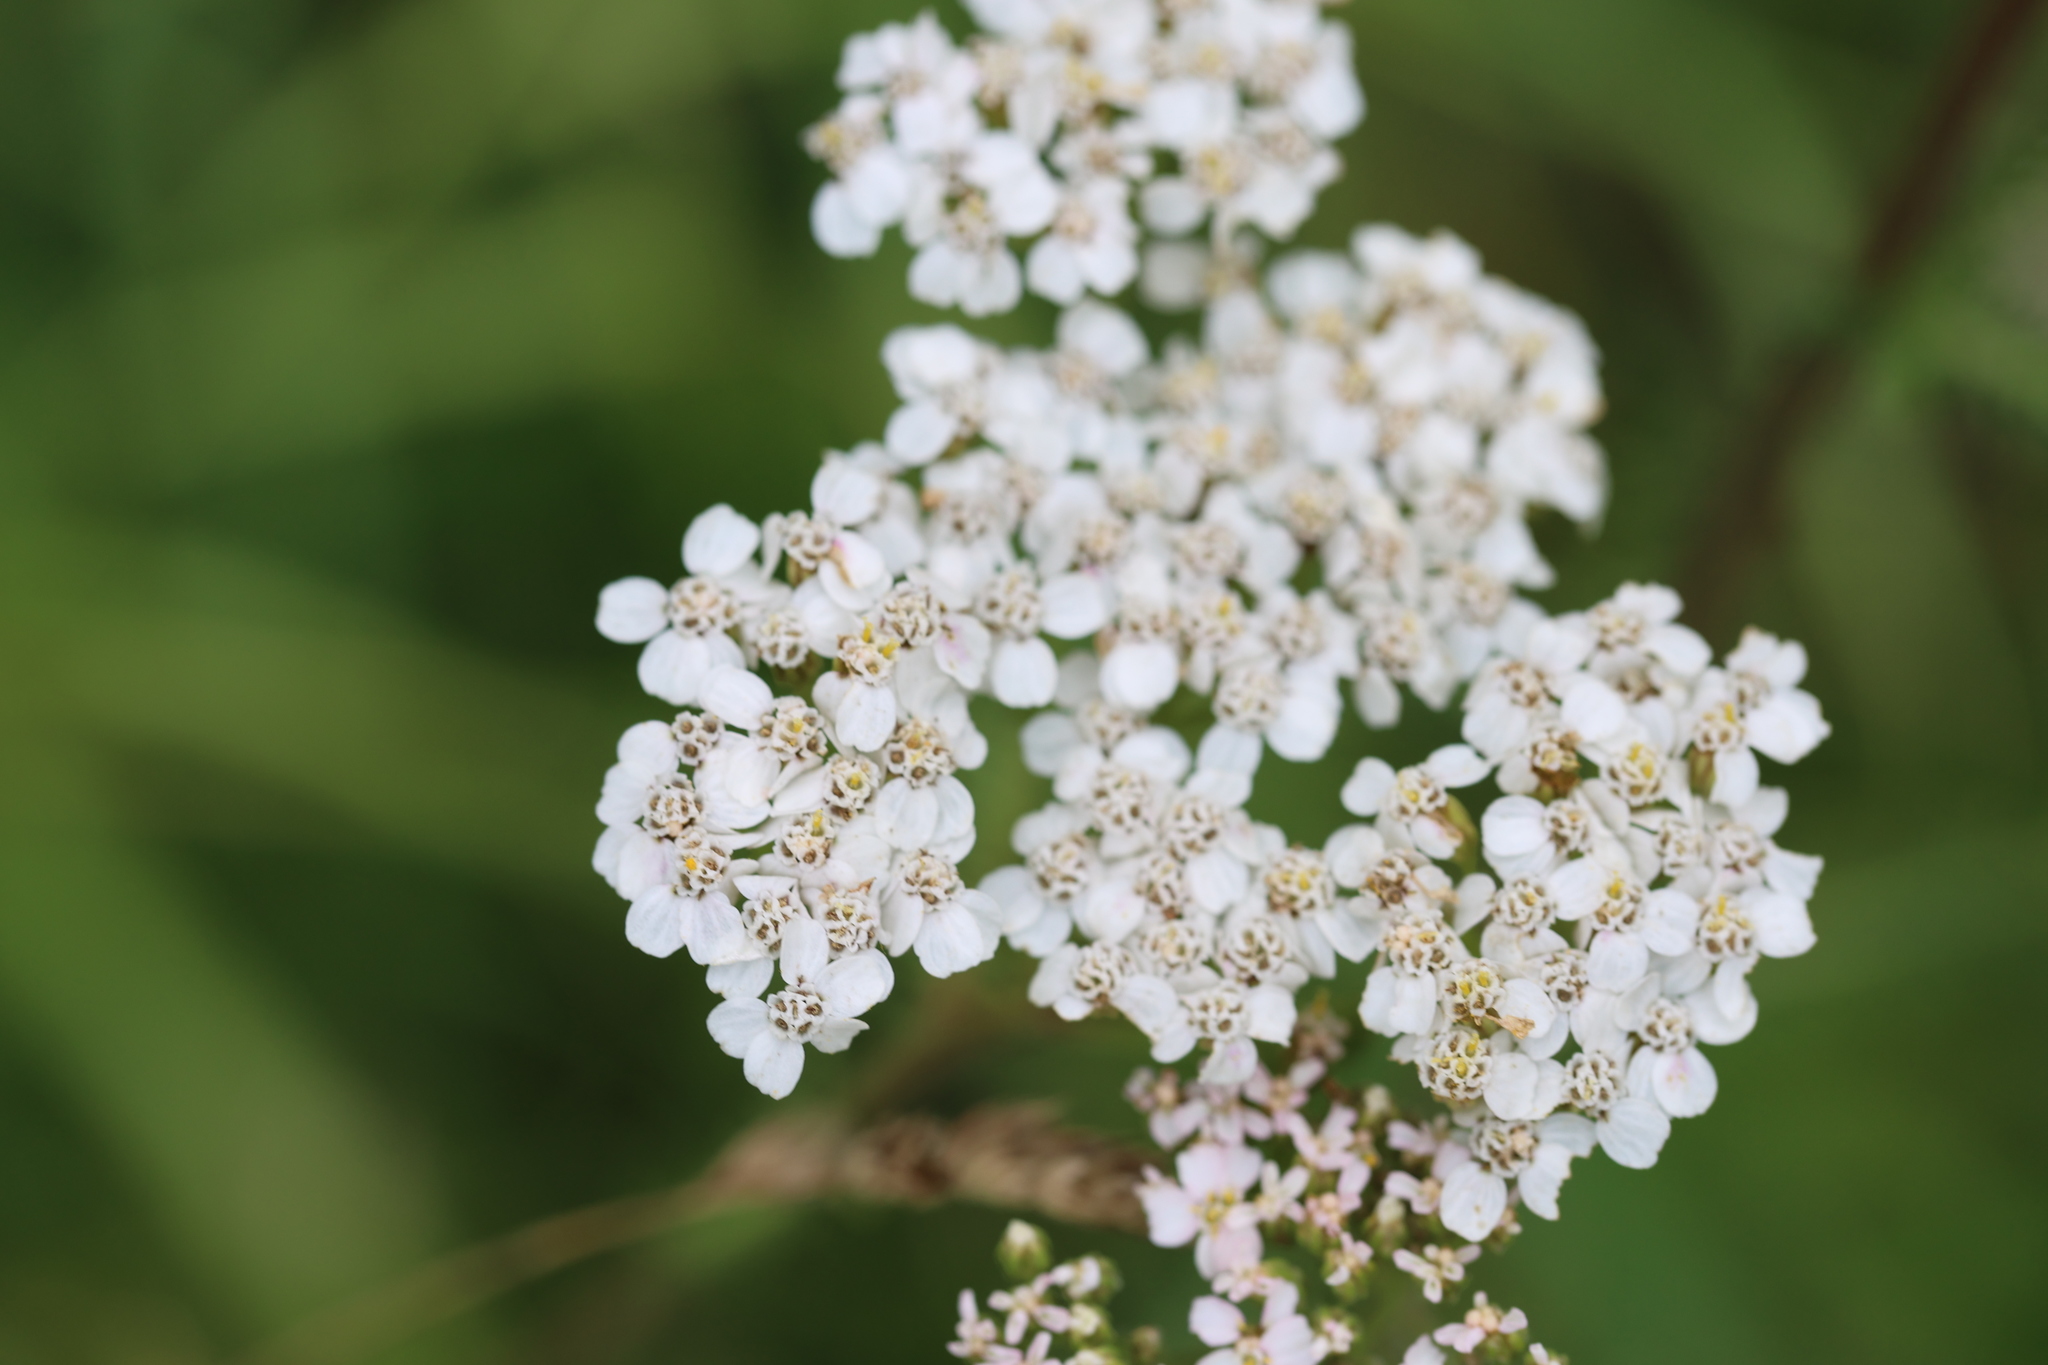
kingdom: Plantae
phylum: Tracheophyta
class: Magnoliopsida
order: Asterales
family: Asteraceae
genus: Achillea
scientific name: Achillea millefolium
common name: Yarrow
